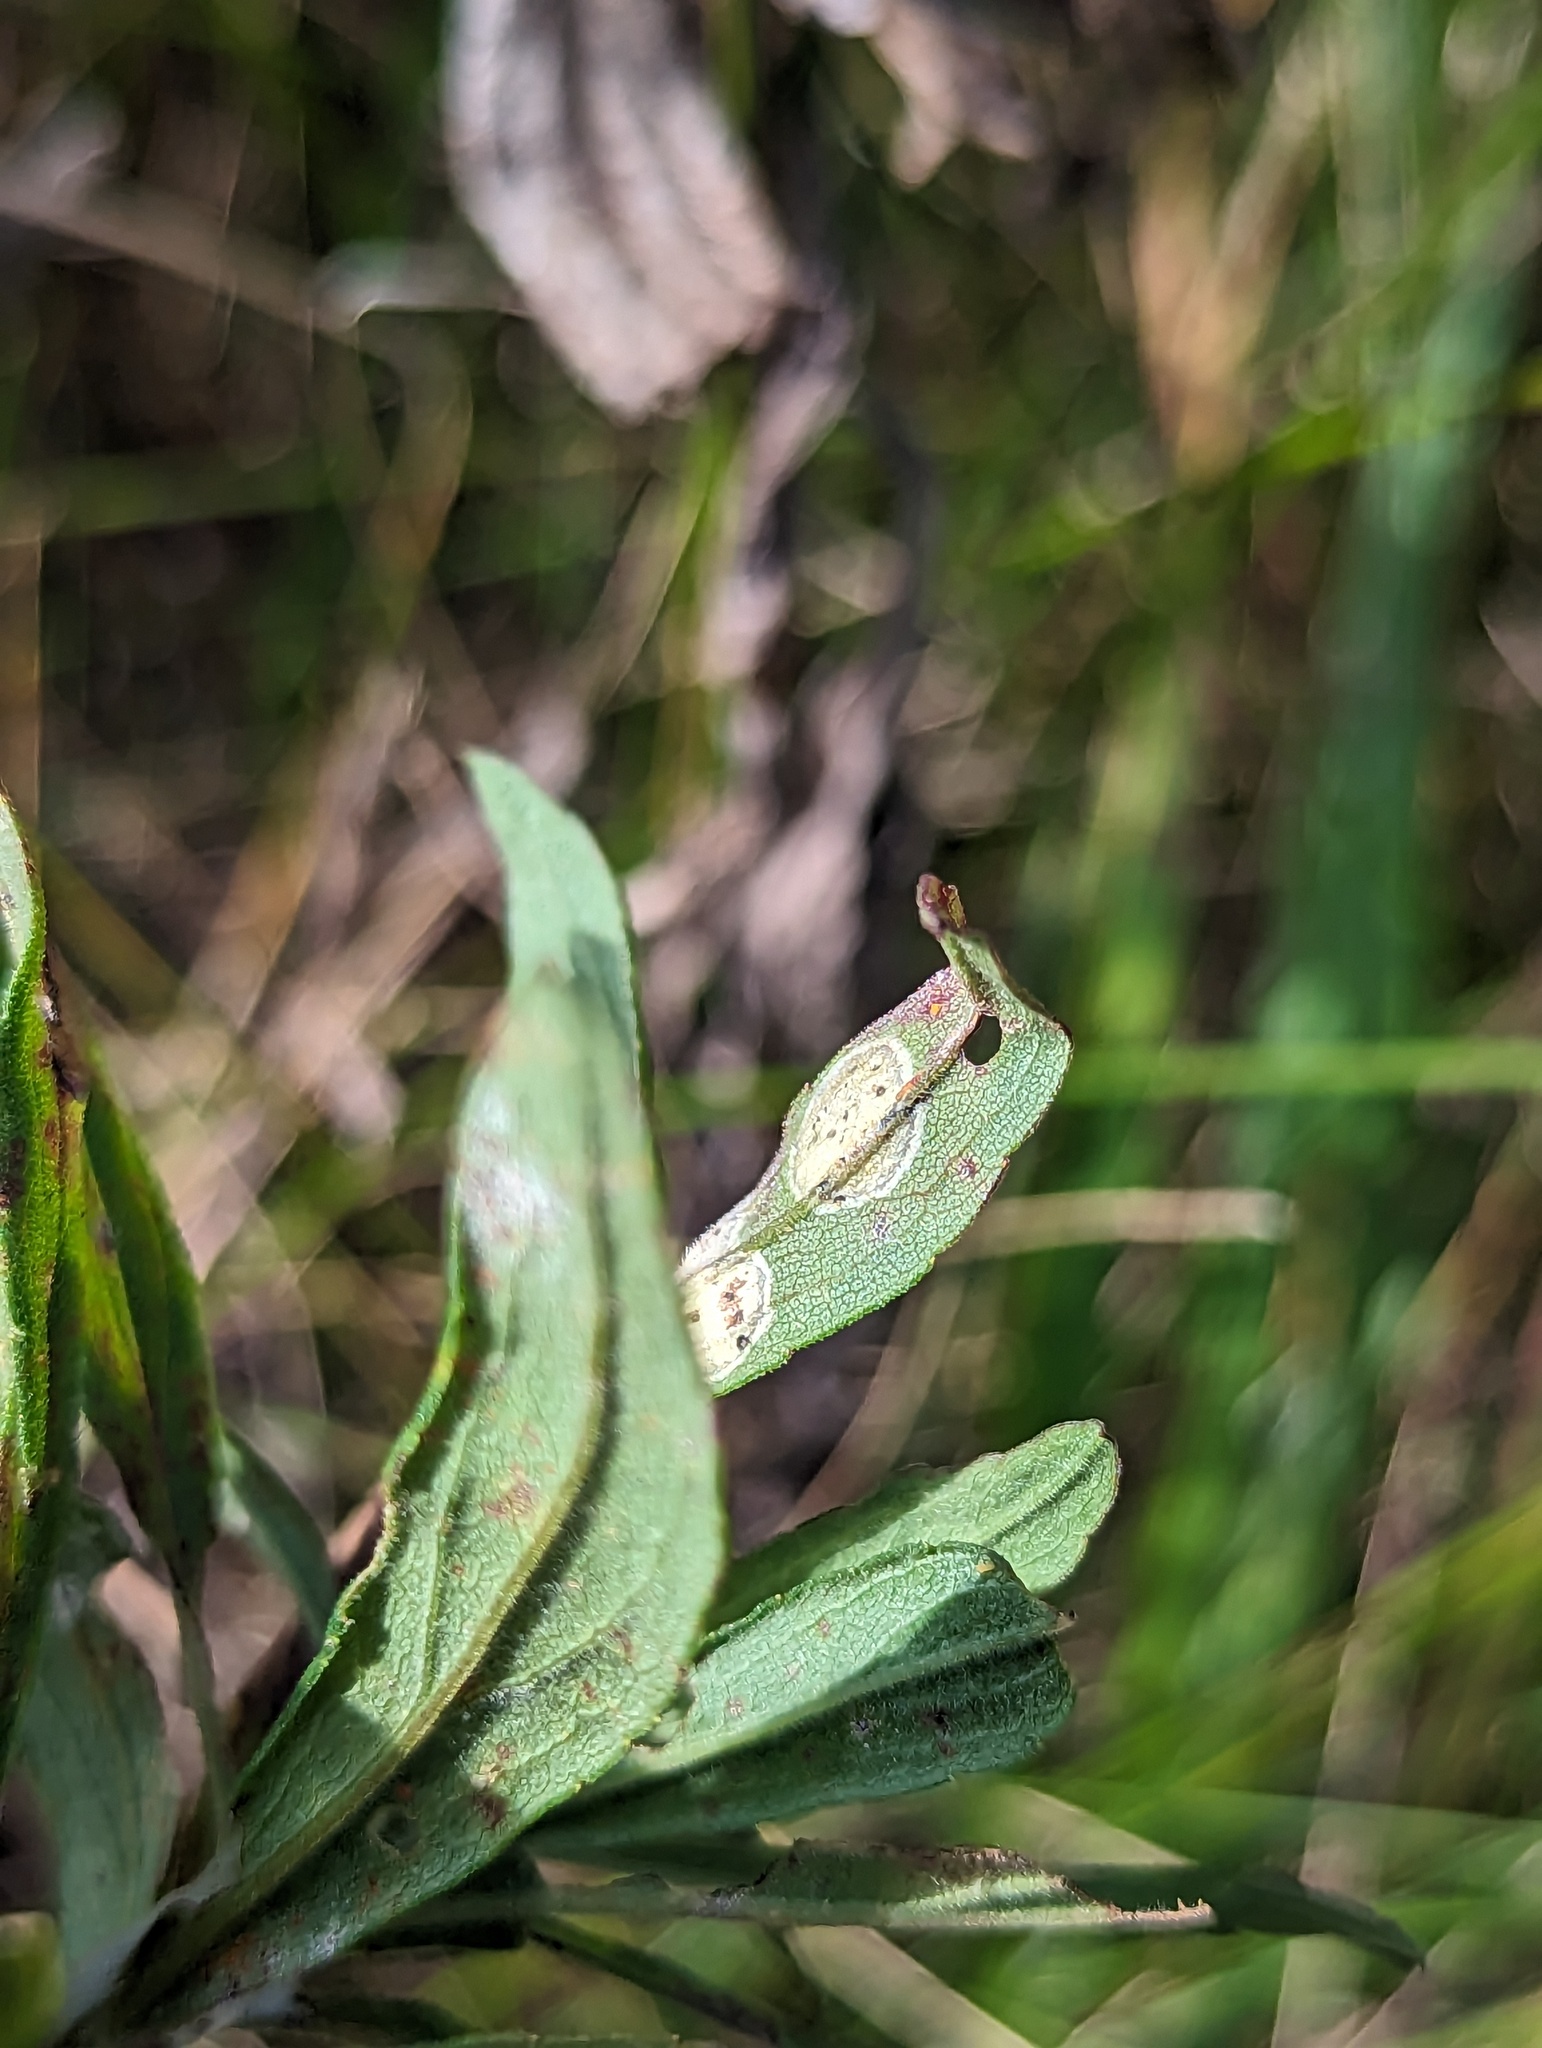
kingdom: Animalia
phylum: Arthropoda
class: Insecta
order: Diptera
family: Cecidomyiidae
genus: Asteromyia
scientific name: Asteromyia carbonifera
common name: Carbonifera goldenrod gall midge
